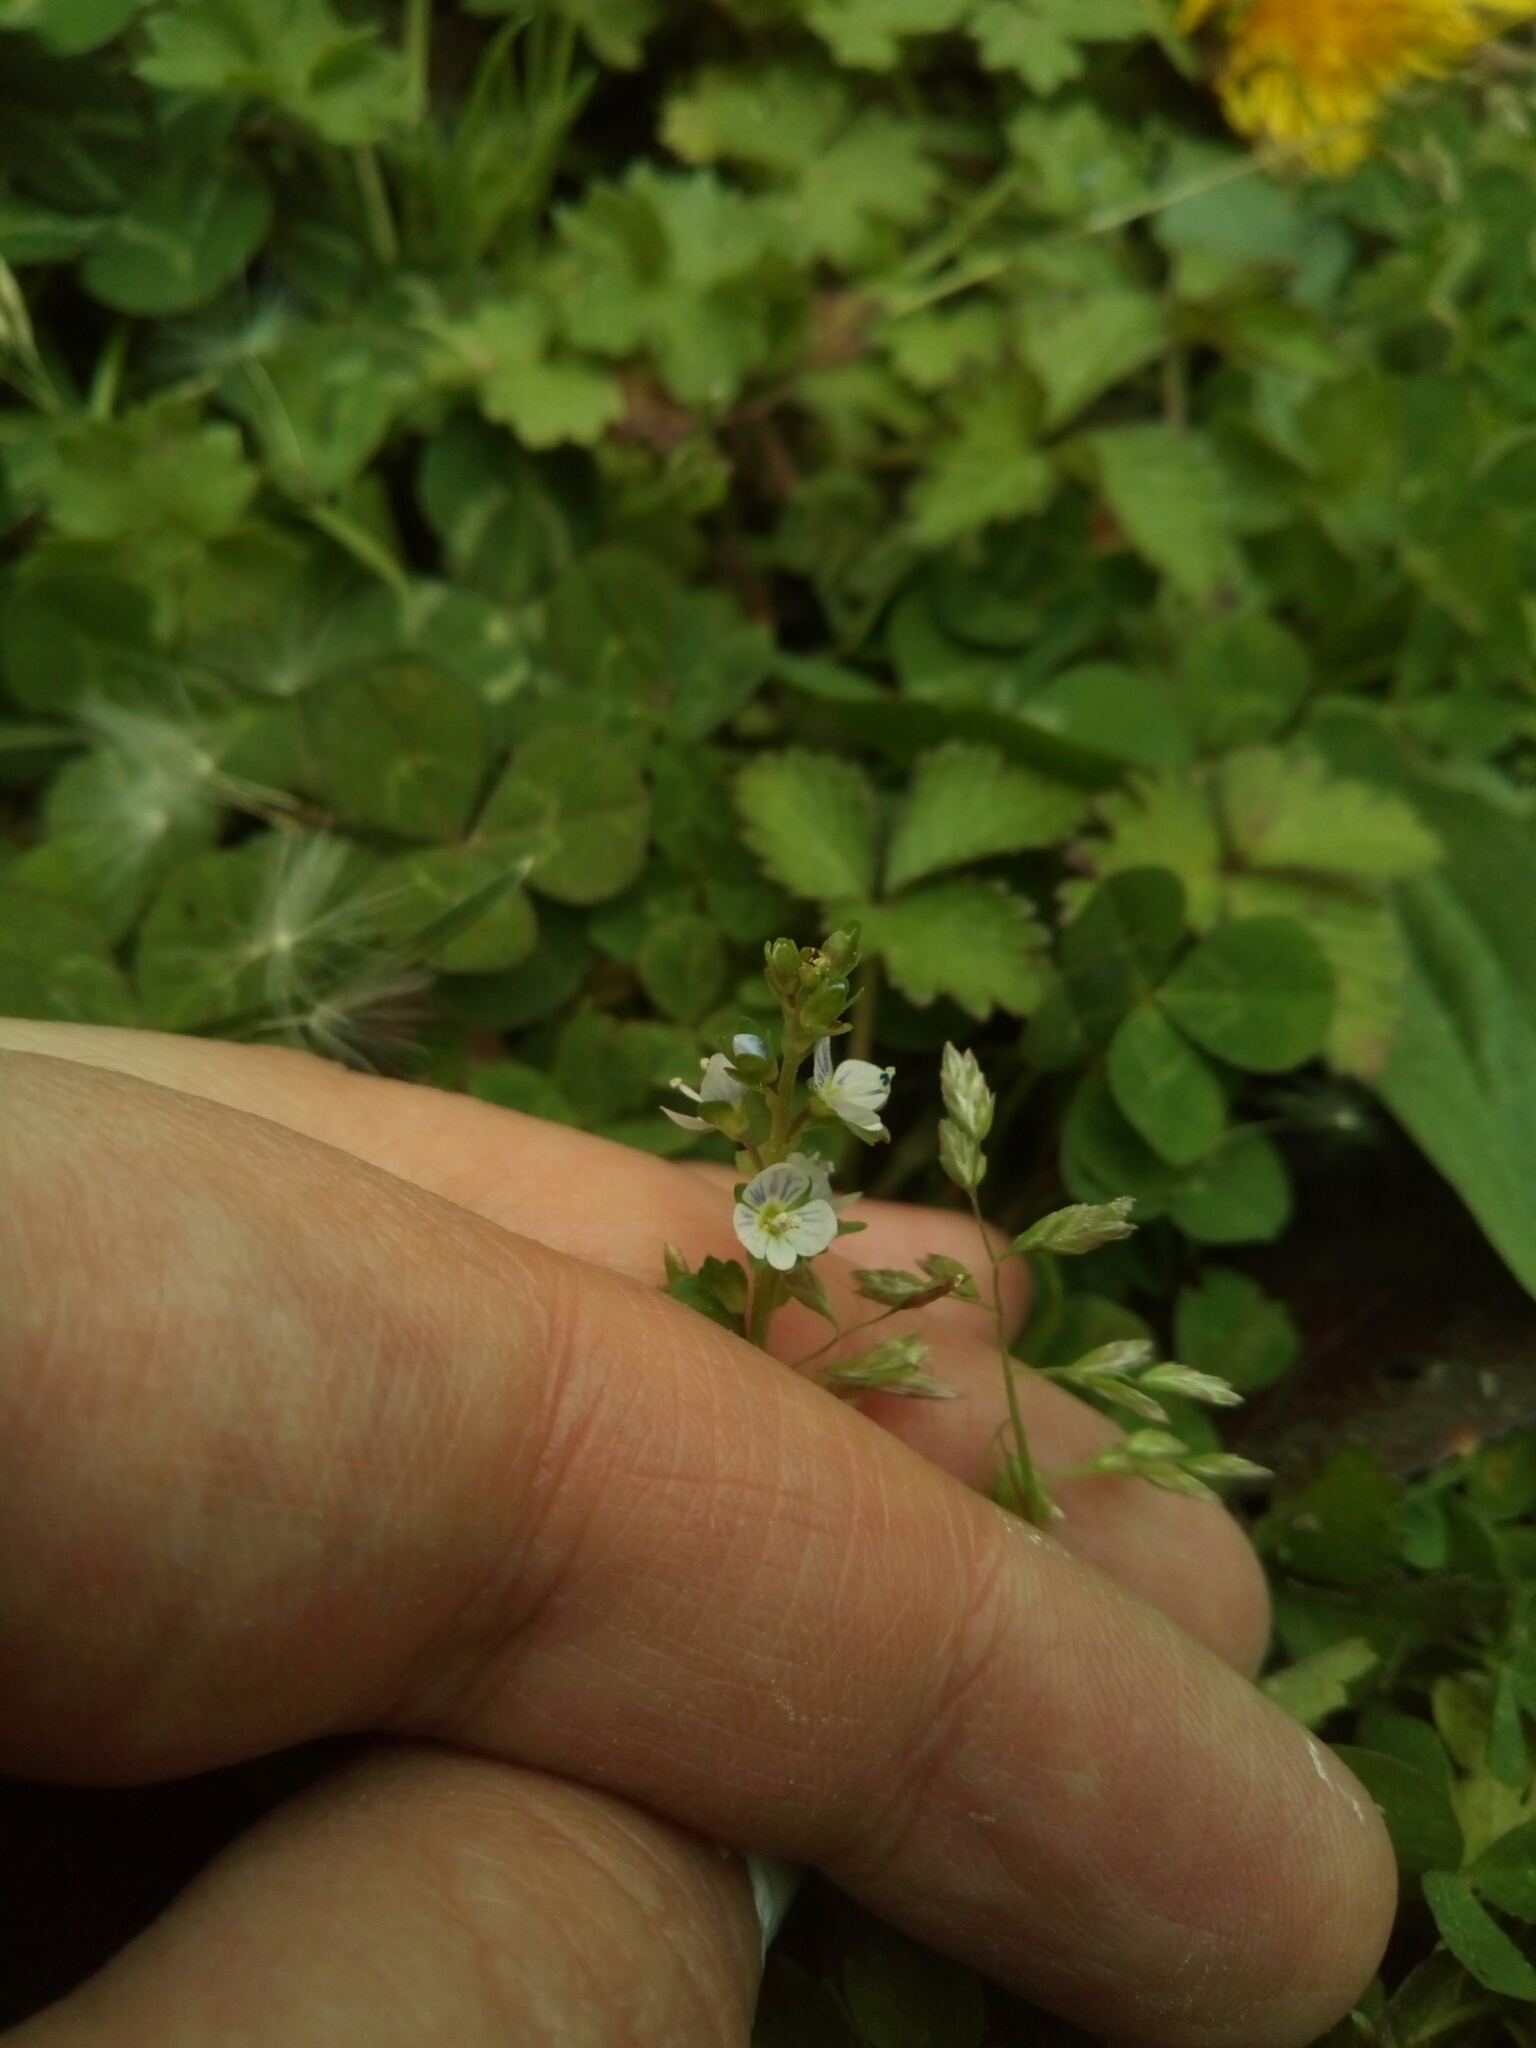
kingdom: Plantae
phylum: Tracheophyta
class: Magnoliopsida
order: Lamiales
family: Plantaginaceae
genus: Veronica
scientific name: Veronica serpyllifolia
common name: Thyme-leaved speedwell
